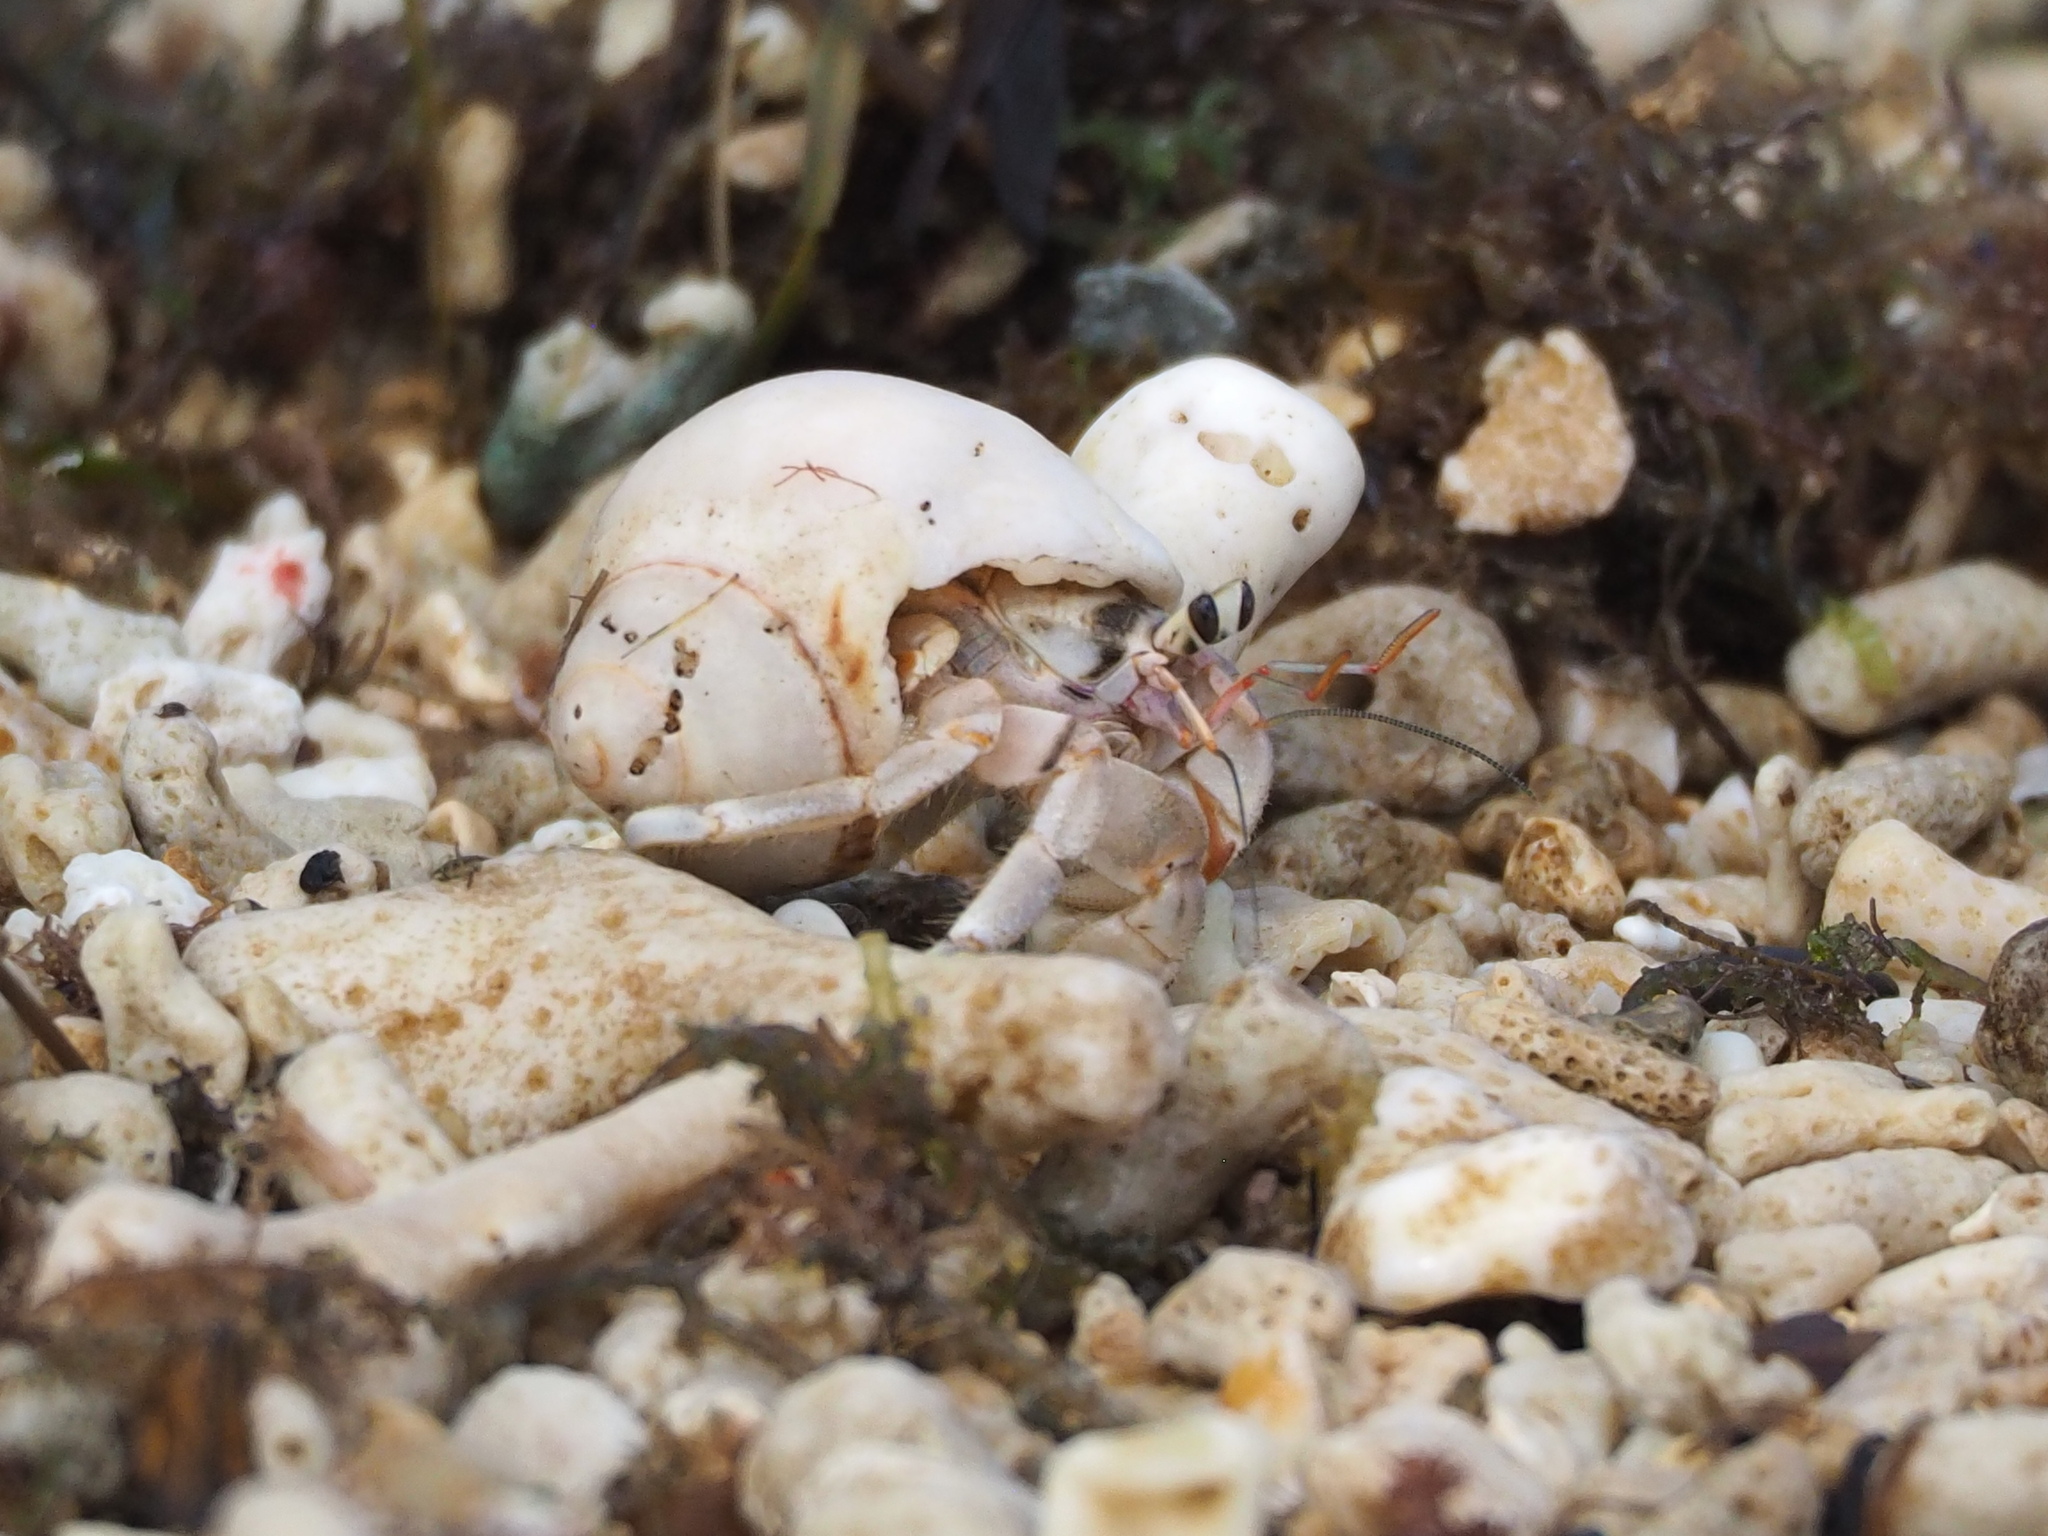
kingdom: Animalia
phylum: Arthropoda
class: Malacostraca
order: Decapoda
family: Coenobitidae
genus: Coenobita
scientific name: Coenobita rugosus
